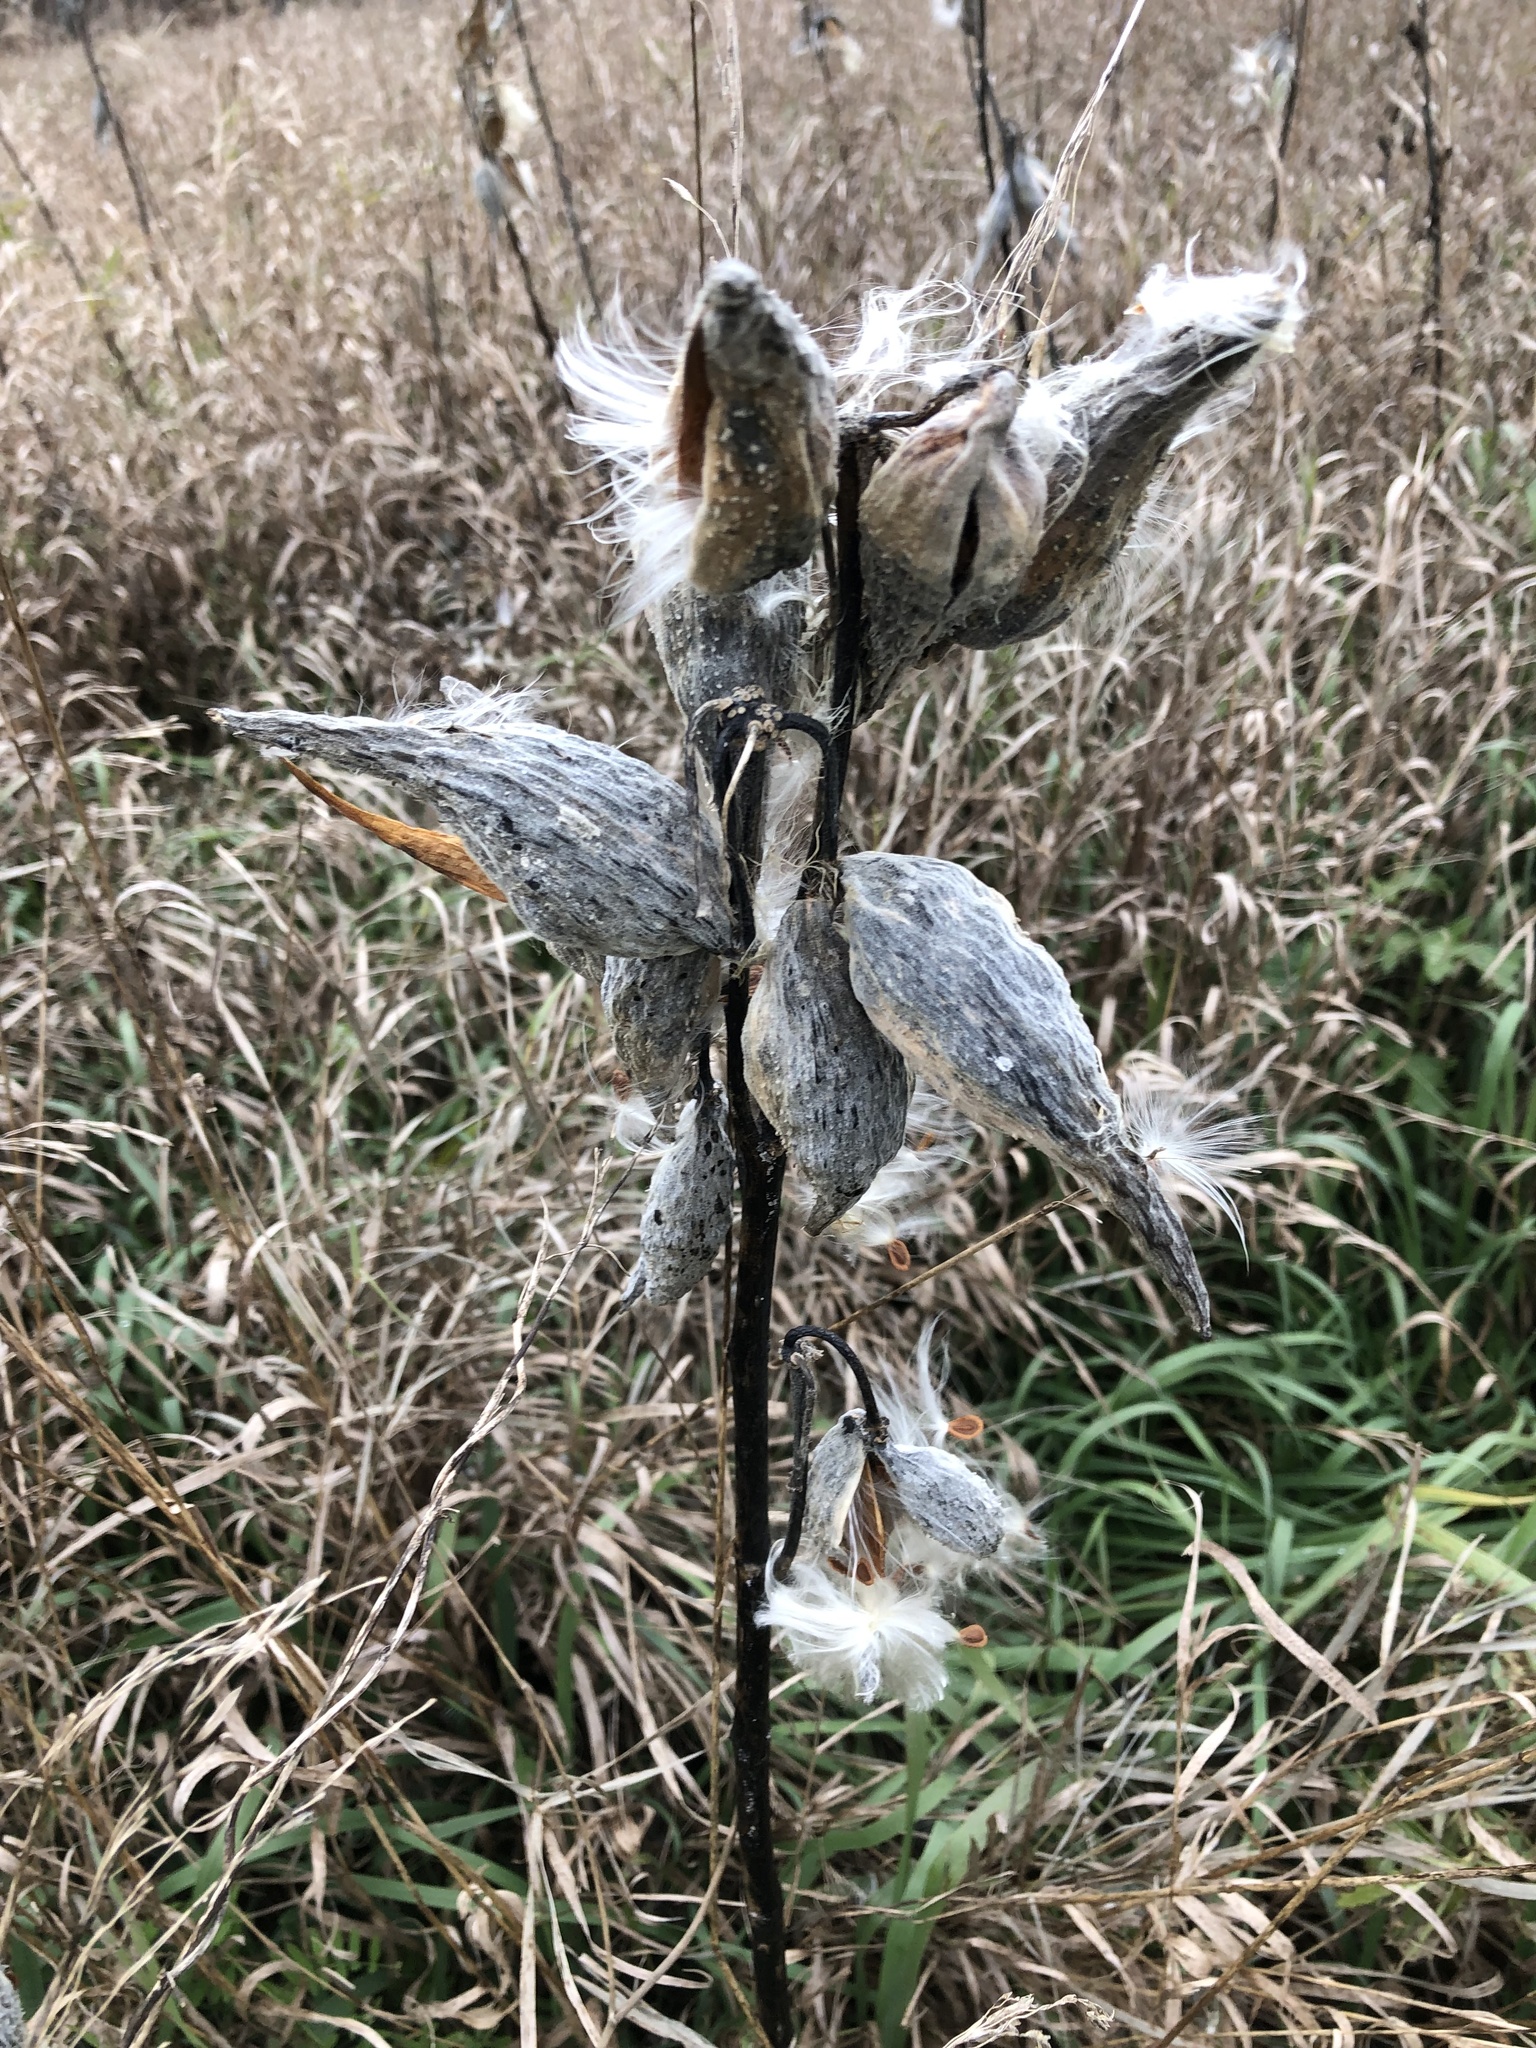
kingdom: Plantae
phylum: Tracheophyta
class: Magnoliopsida
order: Gentianales
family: Apocynaceae
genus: Asclepias
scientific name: Asclepias syriaca
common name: Common milkweed
